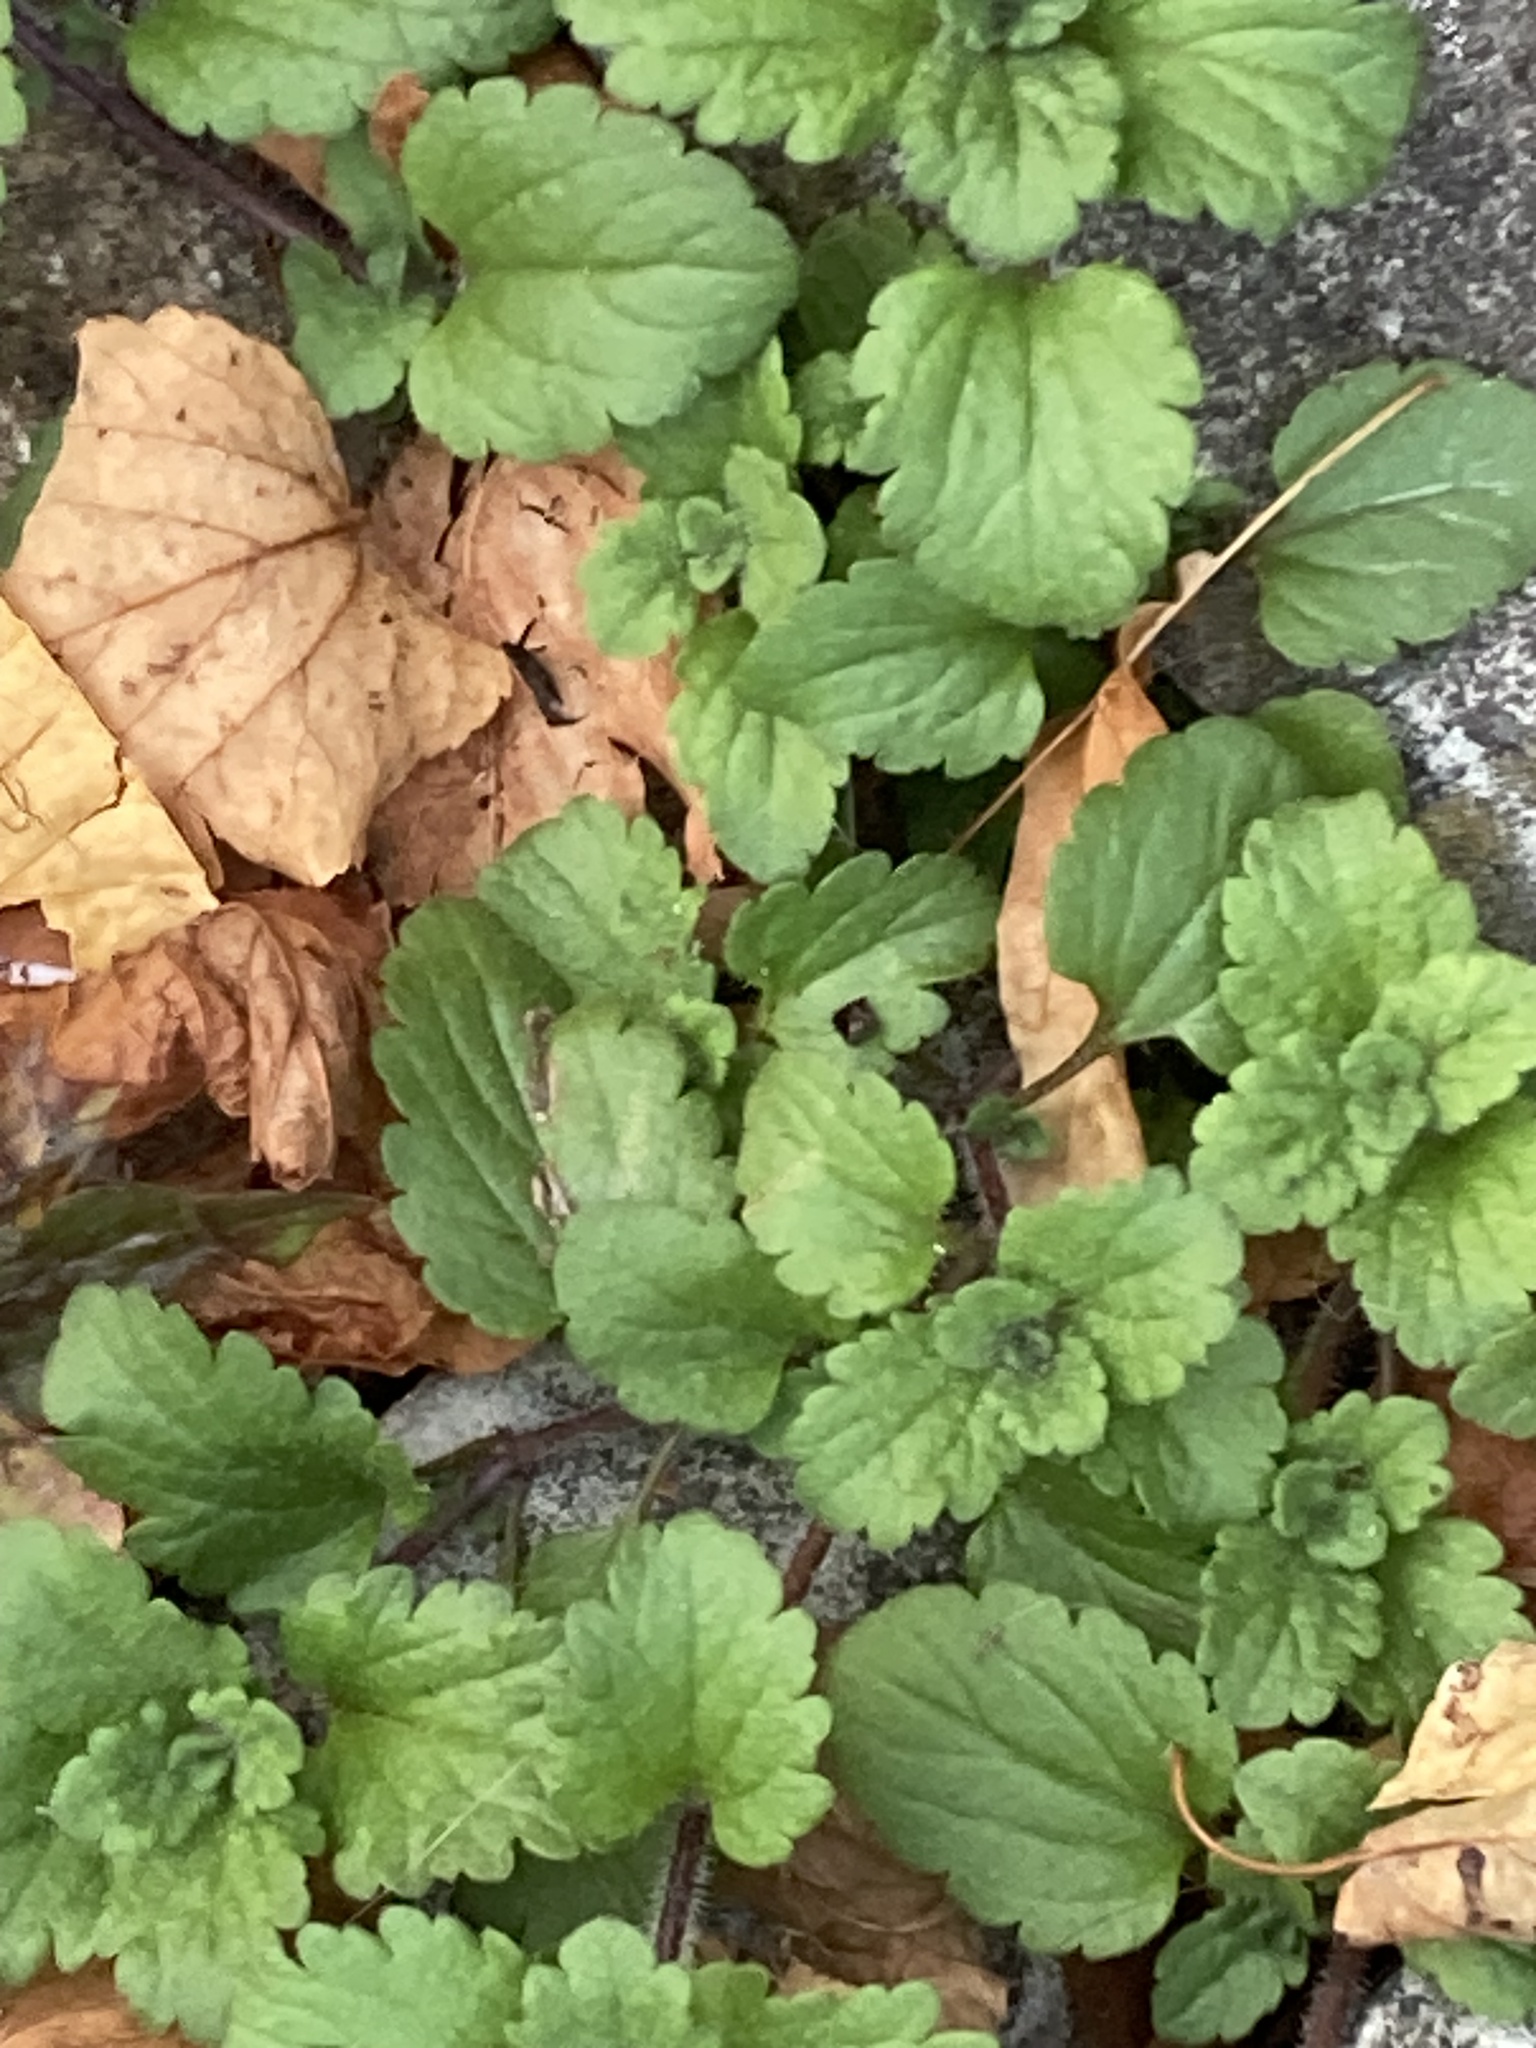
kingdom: Plantae
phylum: Tracheophyta
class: Magnoliopsida
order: Lamiales
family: Plantaginaceae
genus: Veronica
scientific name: Veronica persica
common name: Common field-speedwell
